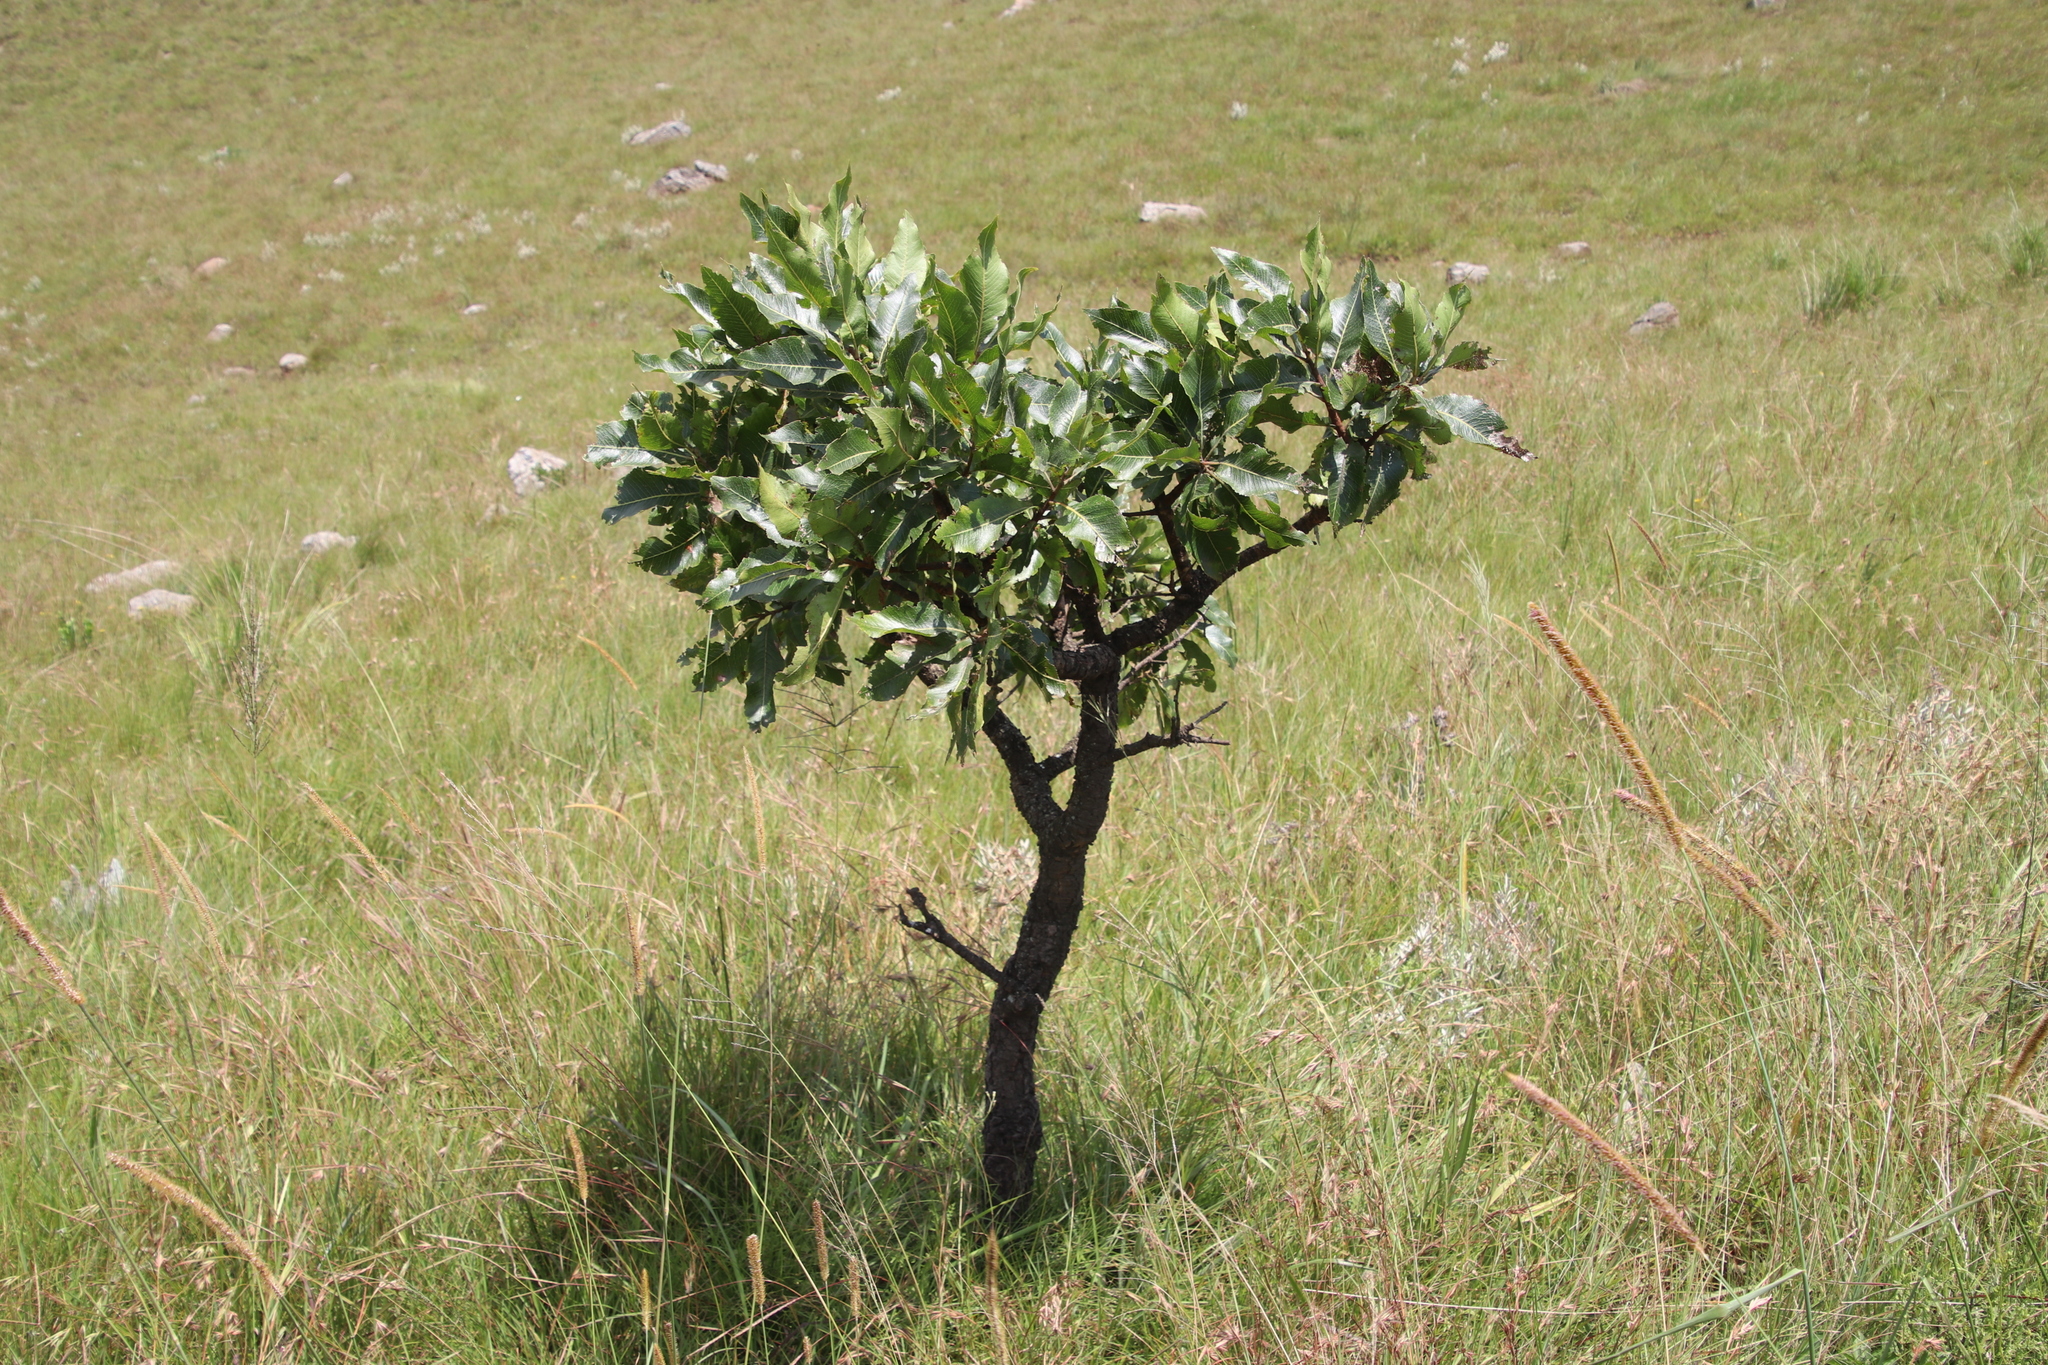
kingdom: Plantae
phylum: Tracheophyta
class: Magnoliopsida
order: Proteales
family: Proteaceae
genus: Faurea
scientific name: Faurea rochetiana
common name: Broad-leaved beech
